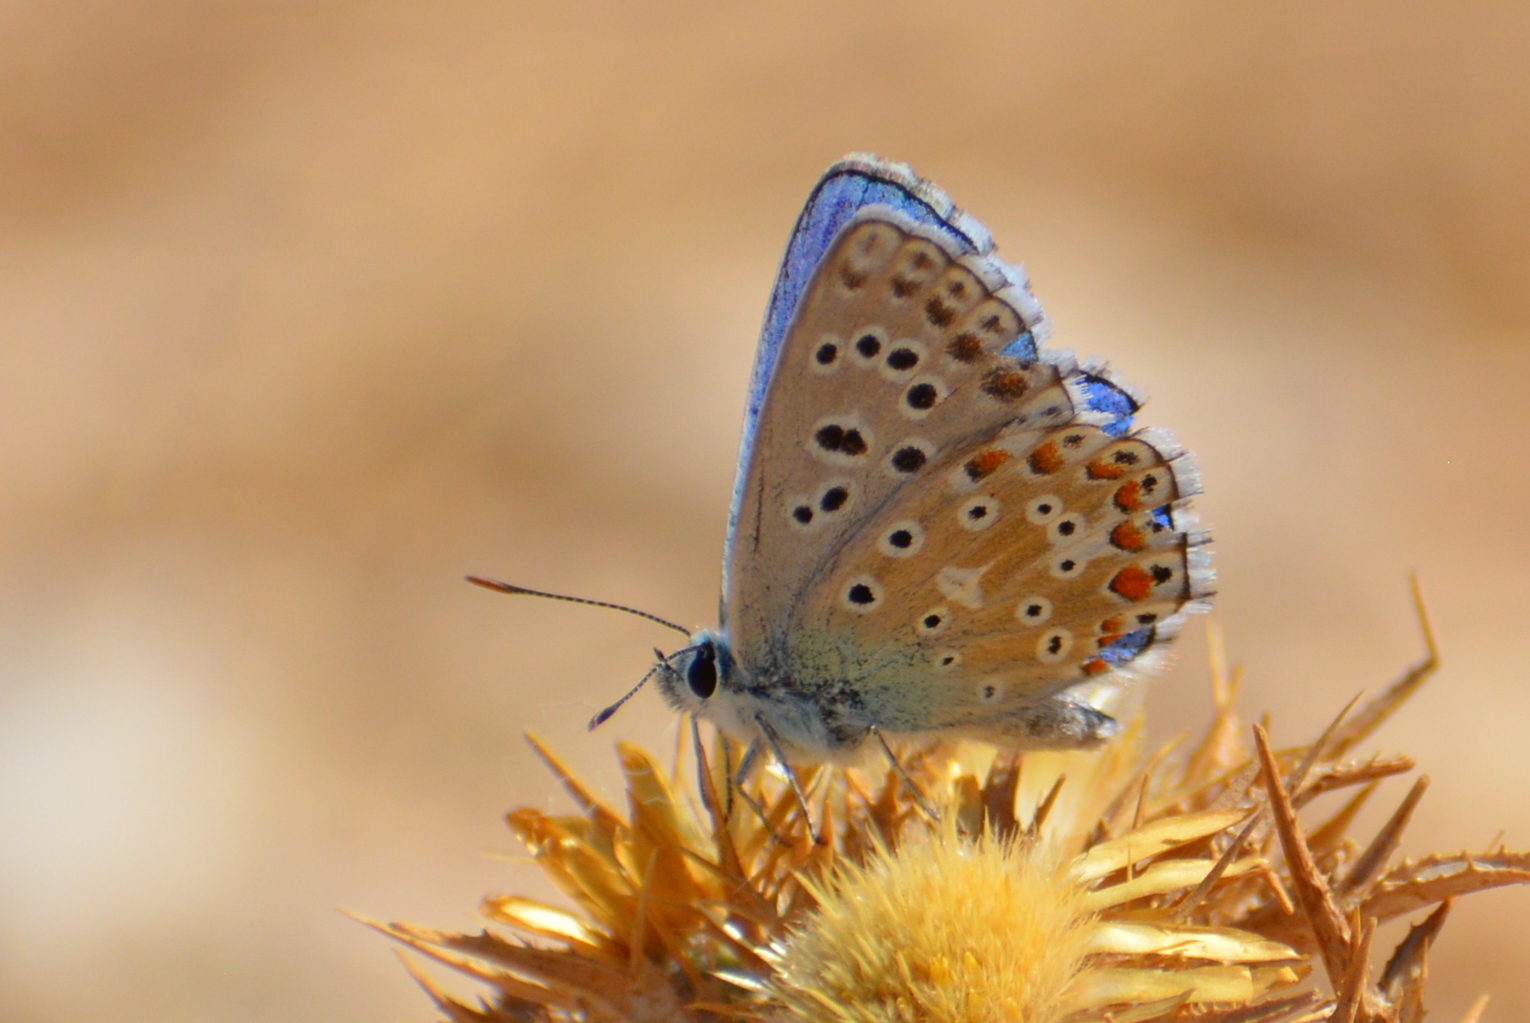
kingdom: Animalia
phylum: Arthropoda
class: Insecta
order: Lepidoptera
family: Lycaenidae
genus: Lysandra
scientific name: Lysandra bellargus
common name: Adonis blue
